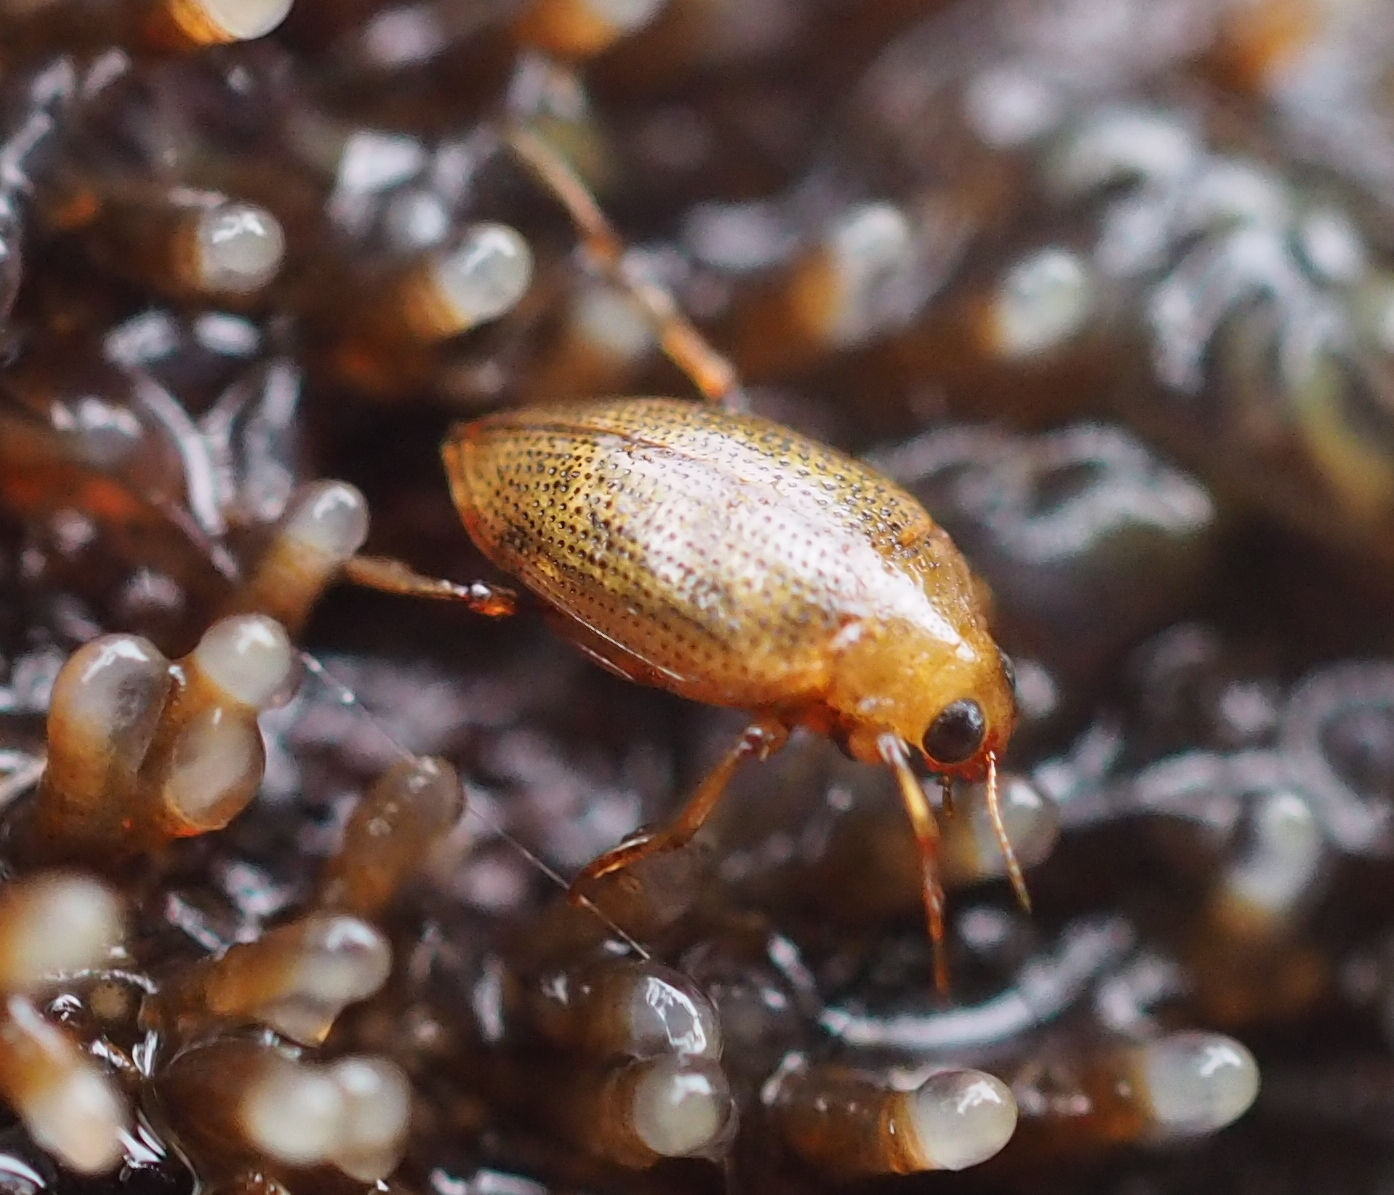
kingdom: Animalia
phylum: Arthropoda
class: Insecta
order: Coleoptera
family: Haliplidae
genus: Haliplus
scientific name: Haliplus flavicollis
